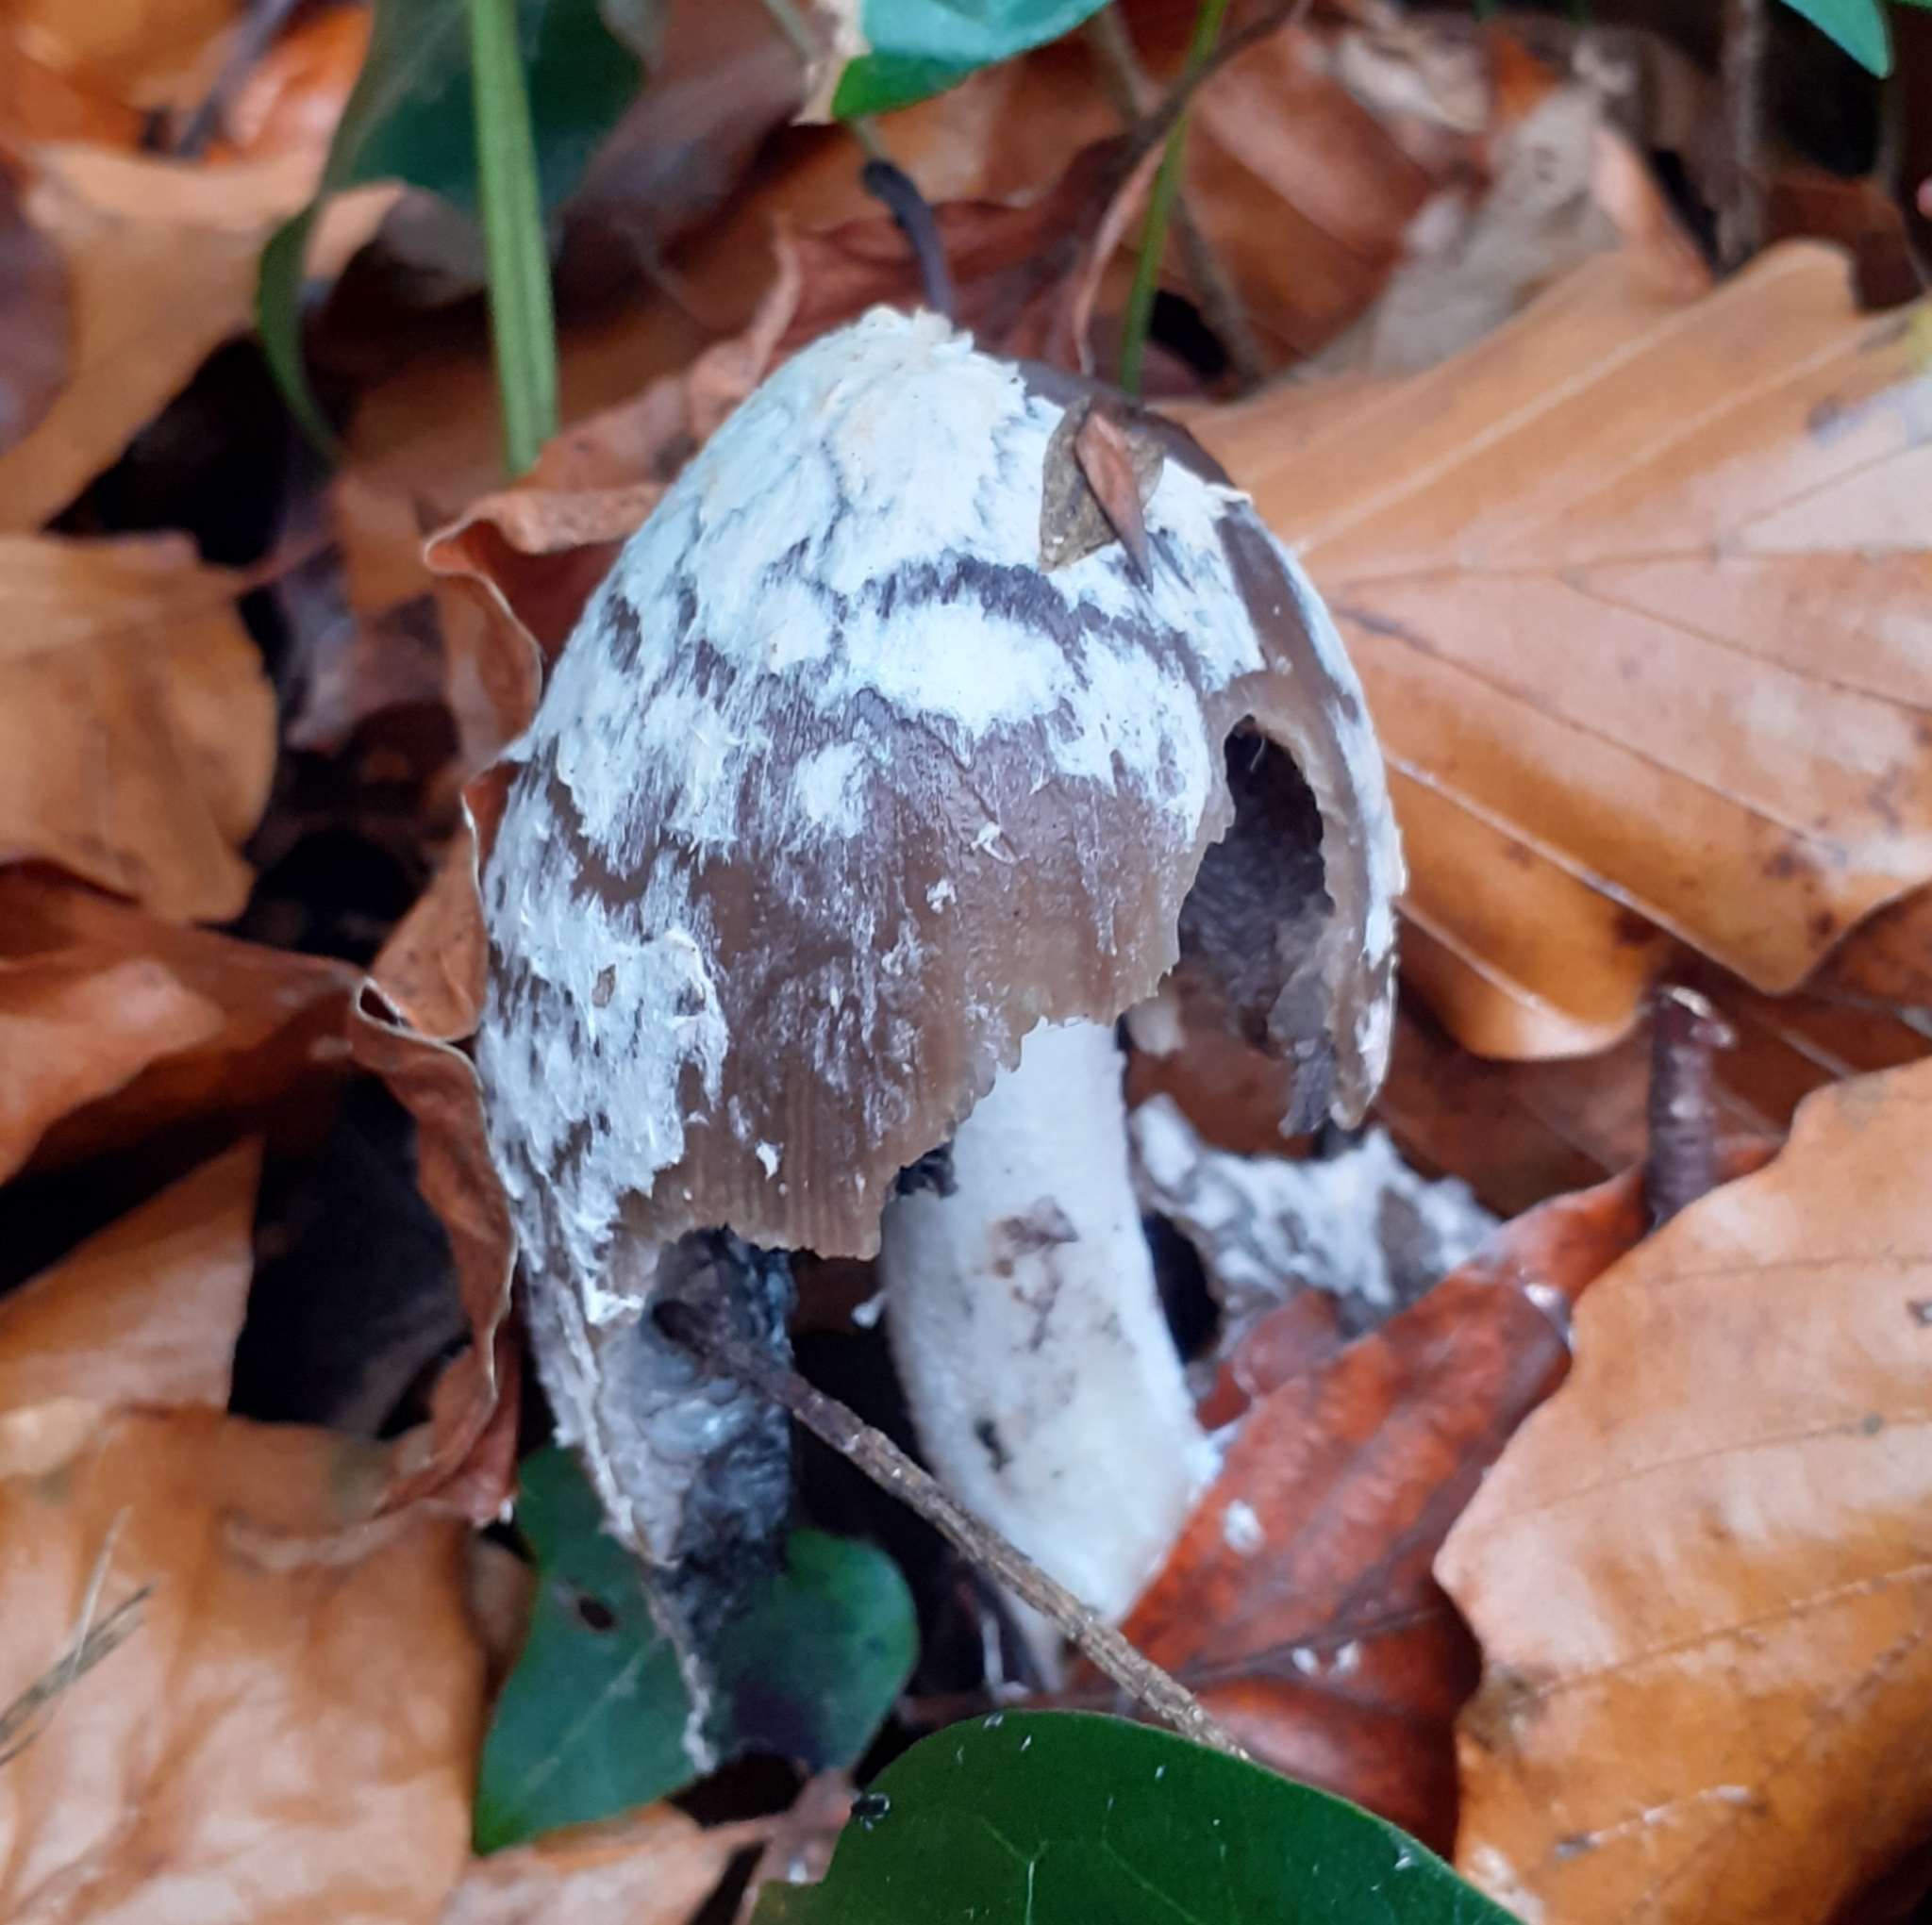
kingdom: Fungi
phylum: Basidiomycota
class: Agaricomycetes
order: Agaricales
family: Psathyrellaceae
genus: Coprinopsis
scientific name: Coprinopsis picacea
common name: Magpie inkcap
